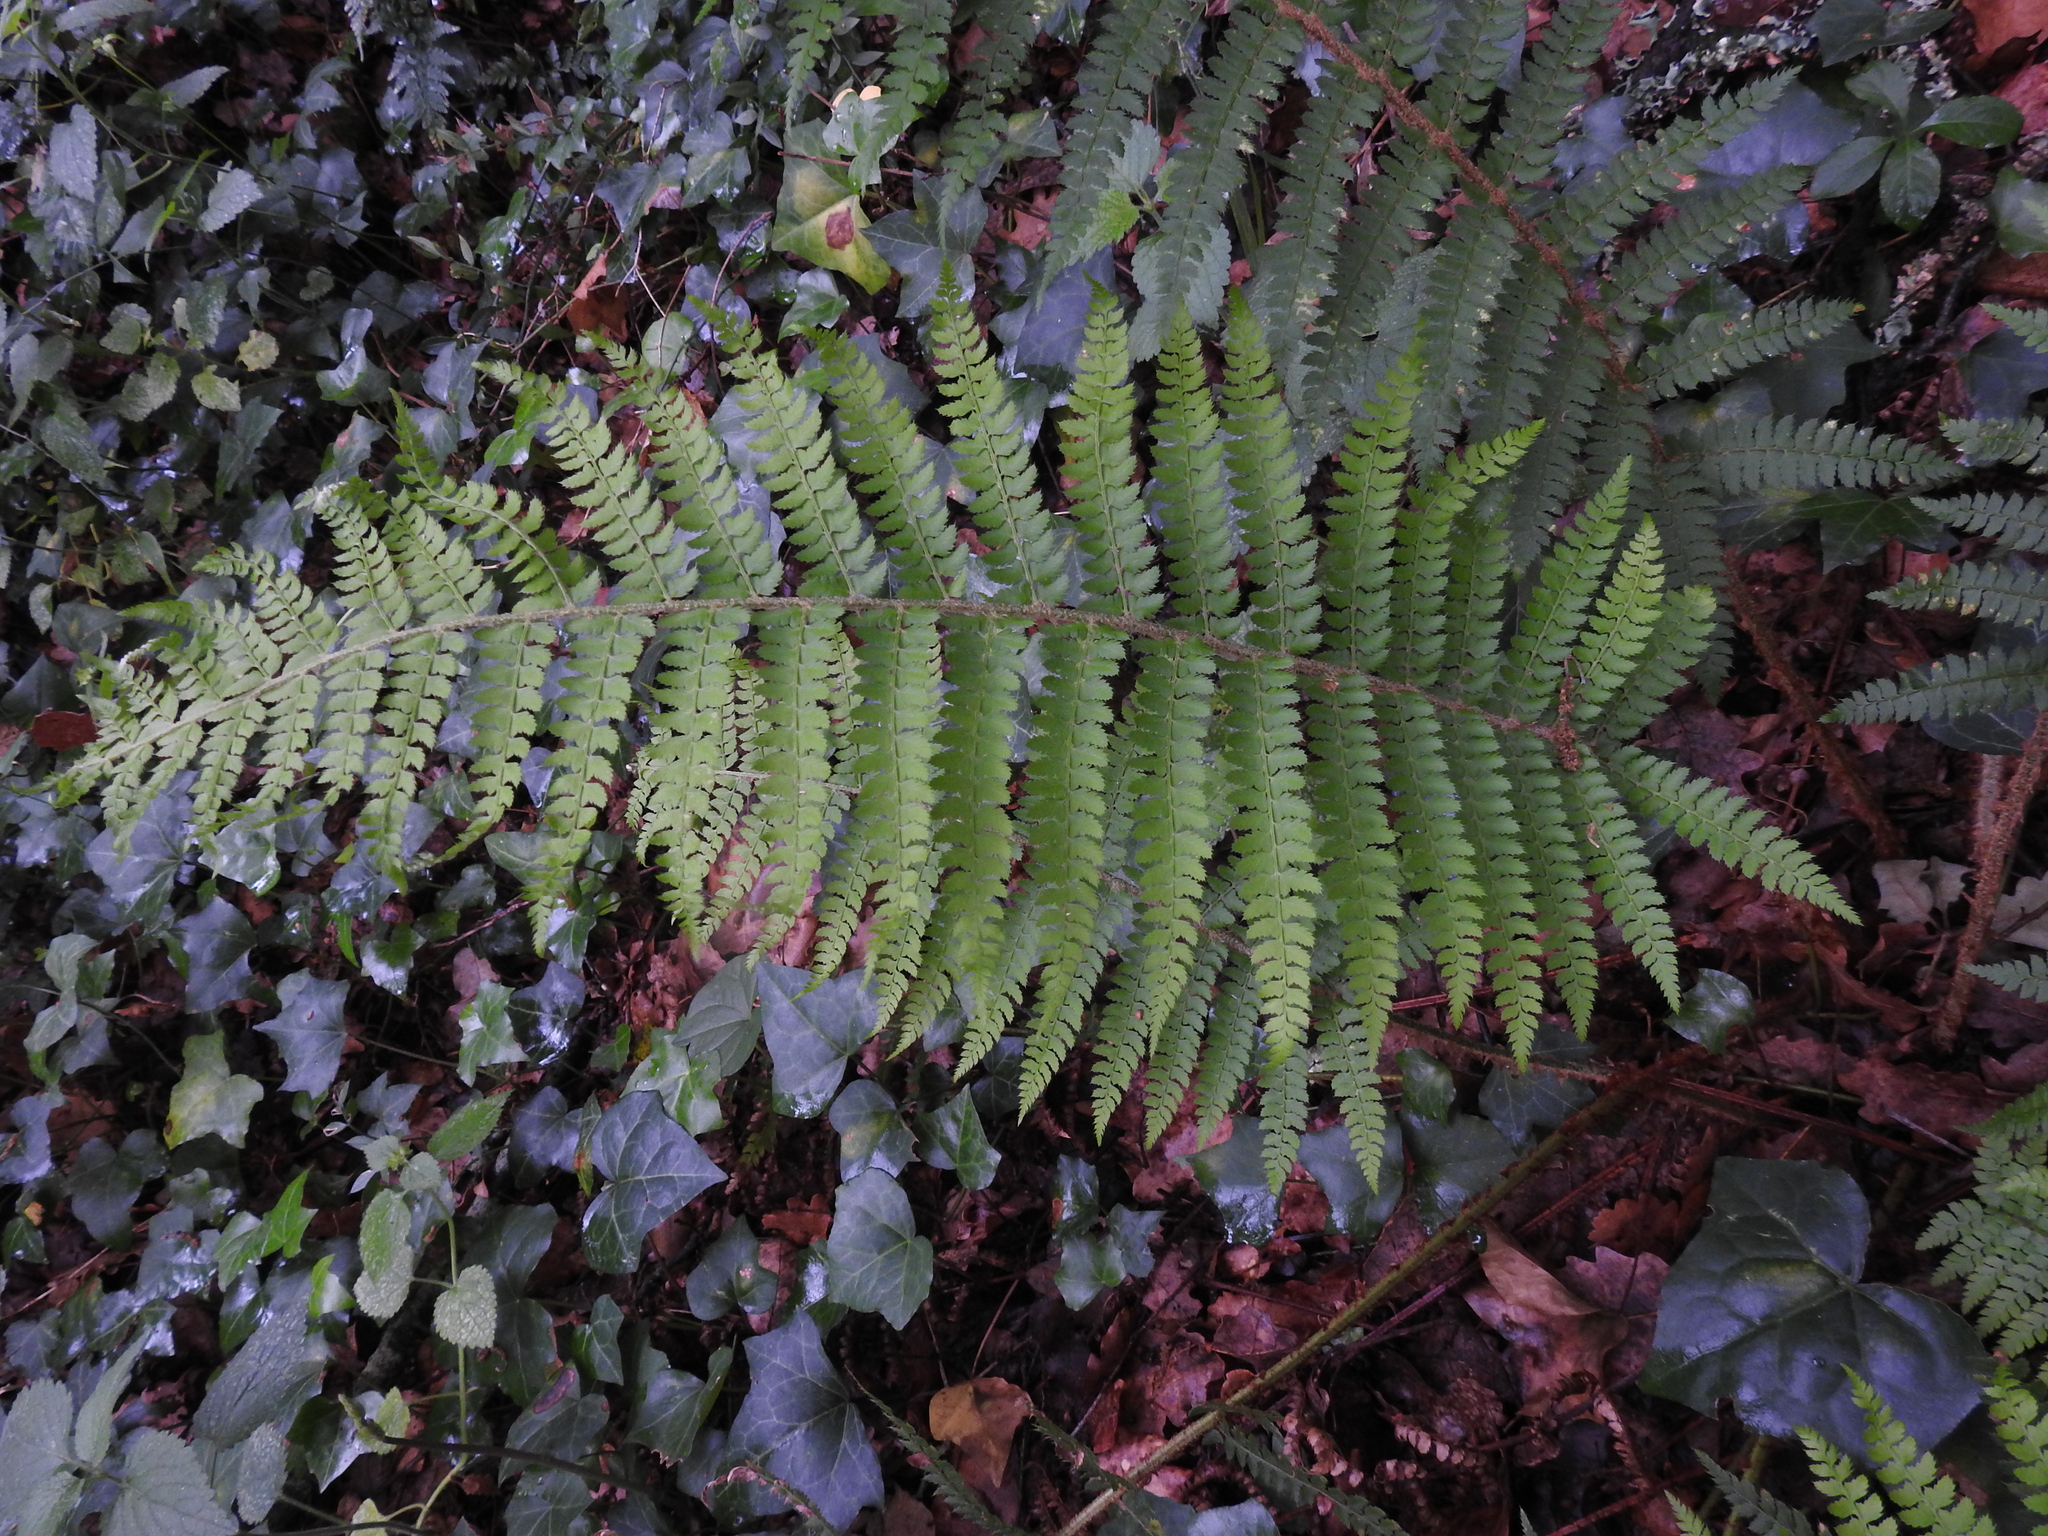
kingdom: Plantae
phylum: Tracheophyta
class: Polypodiopsida
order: Polypodiales
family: Dryopteridaceae
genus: Polystichum
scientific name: Polystichum setiferum
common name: Soft shield-fern
